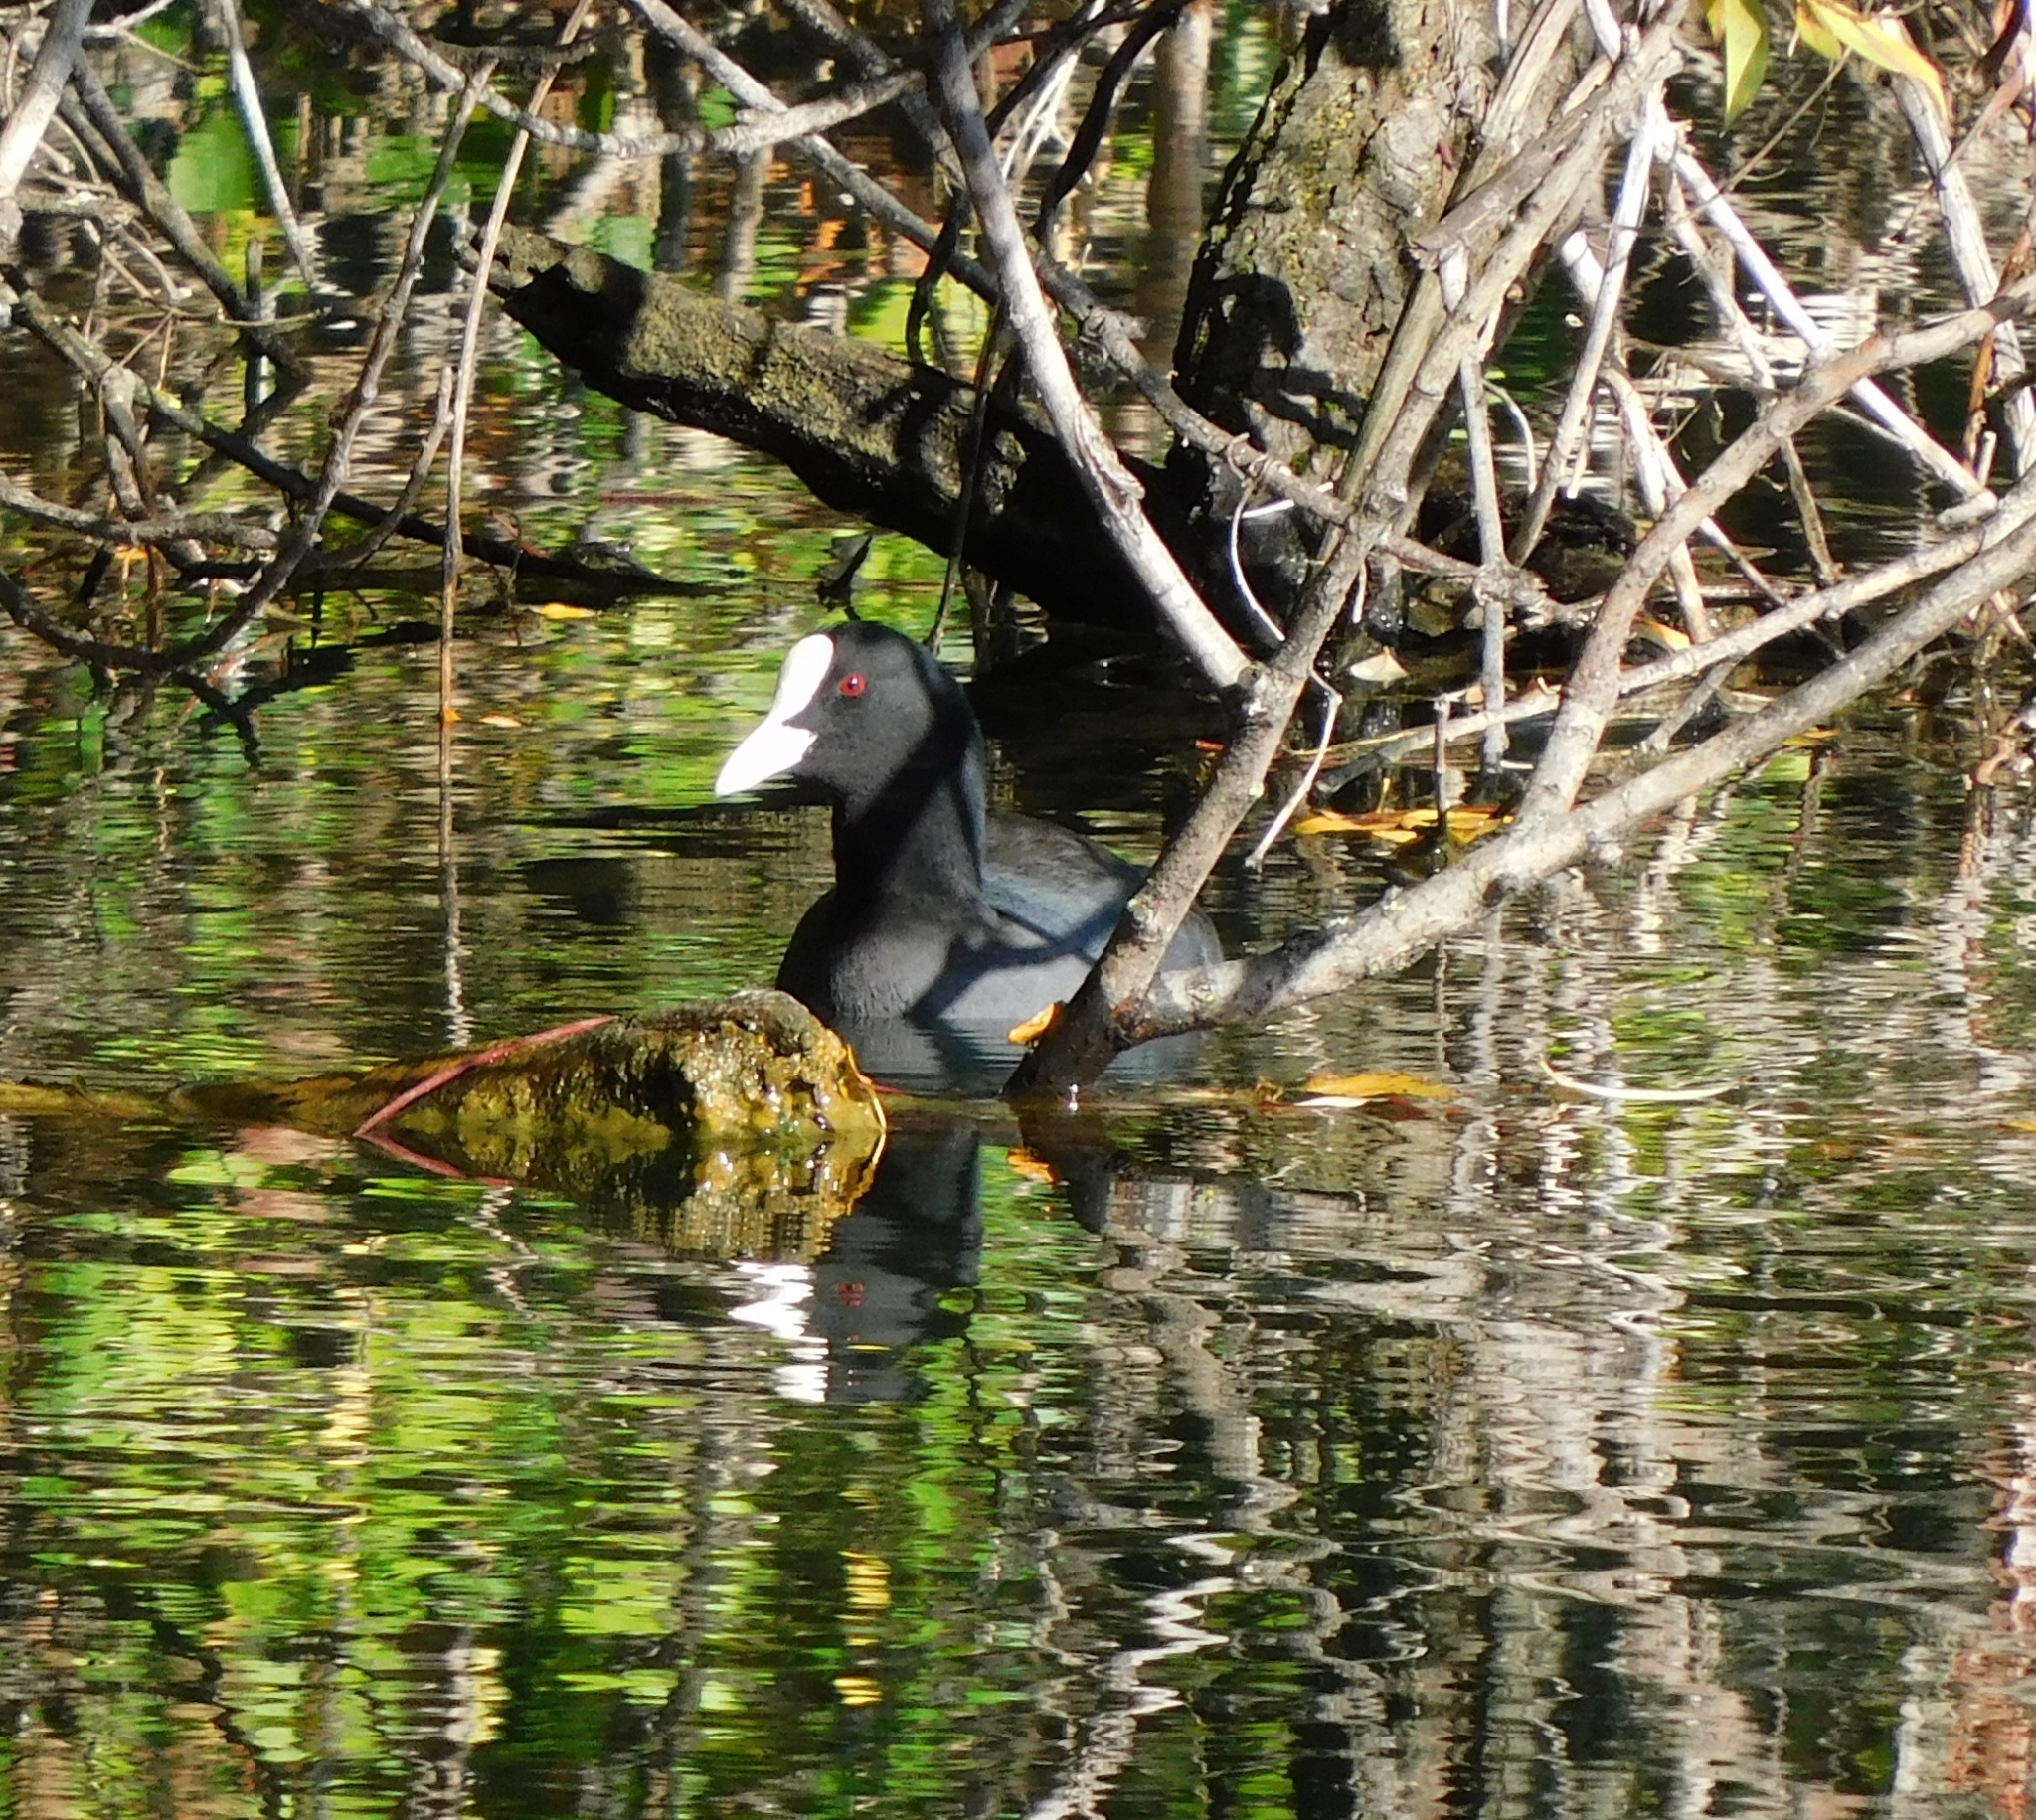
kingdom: Animalia
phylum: Chordata
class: Aves
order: Gruiformes
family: Rallidae
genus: Fulica
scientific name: Fulica atra
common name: Eurasian coot
